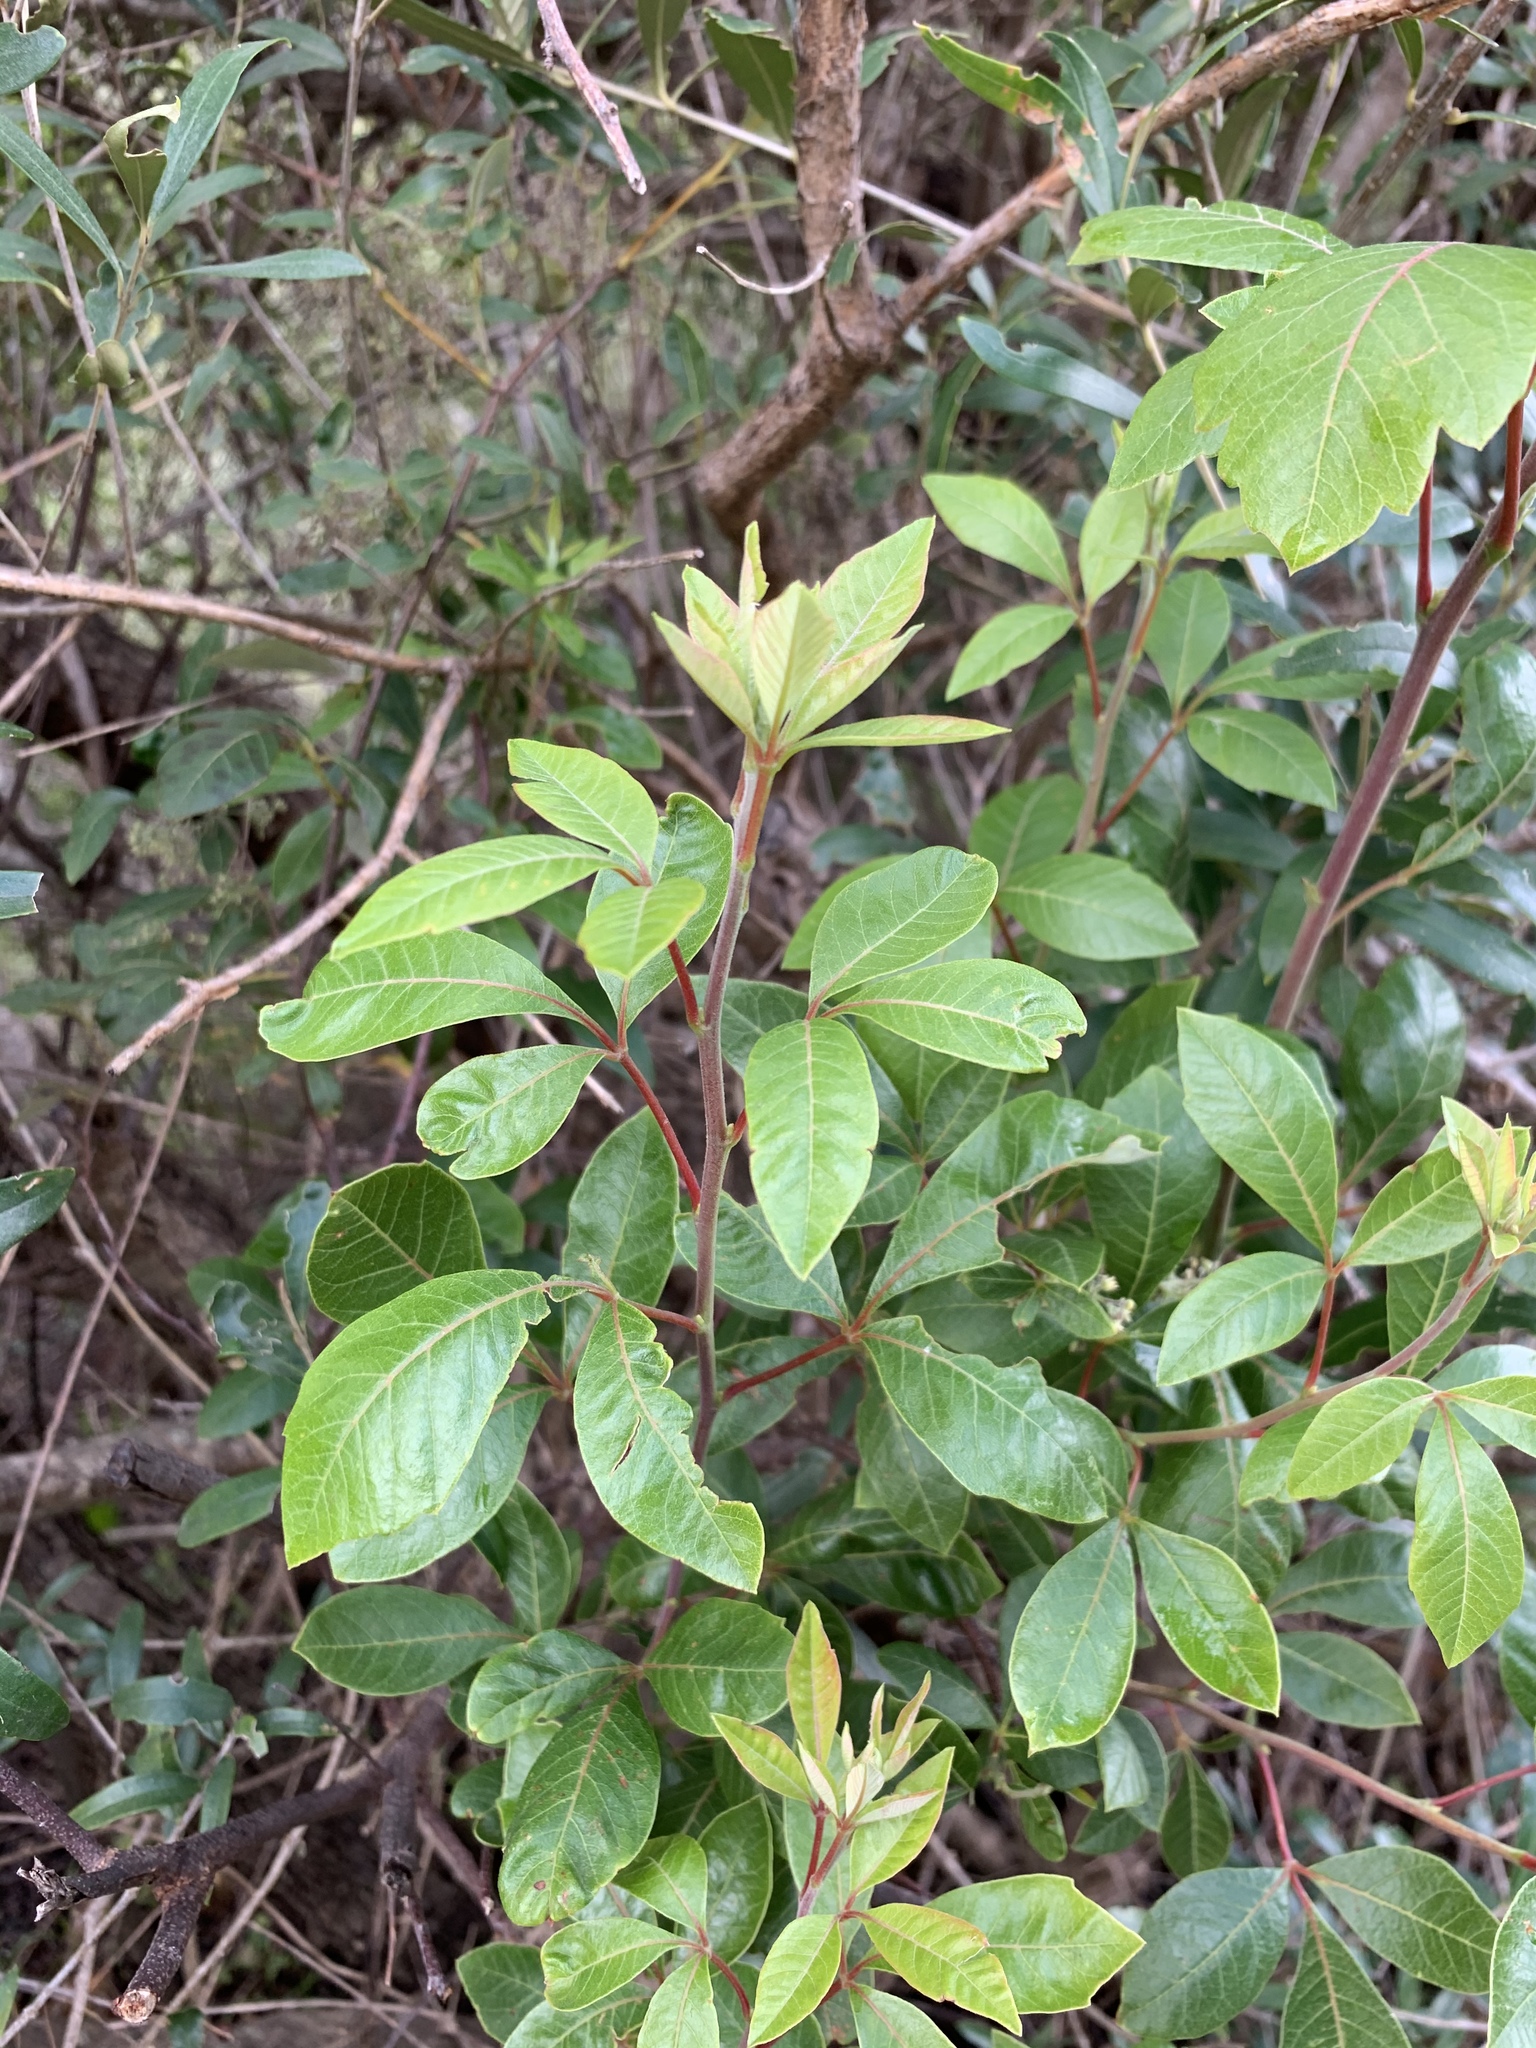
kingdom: Plantae
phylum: Tracheophyta
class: Magnoliopsida
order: Sapindales
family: Anacardiaceae
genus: Searsia
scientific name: Searsia tomentosa
